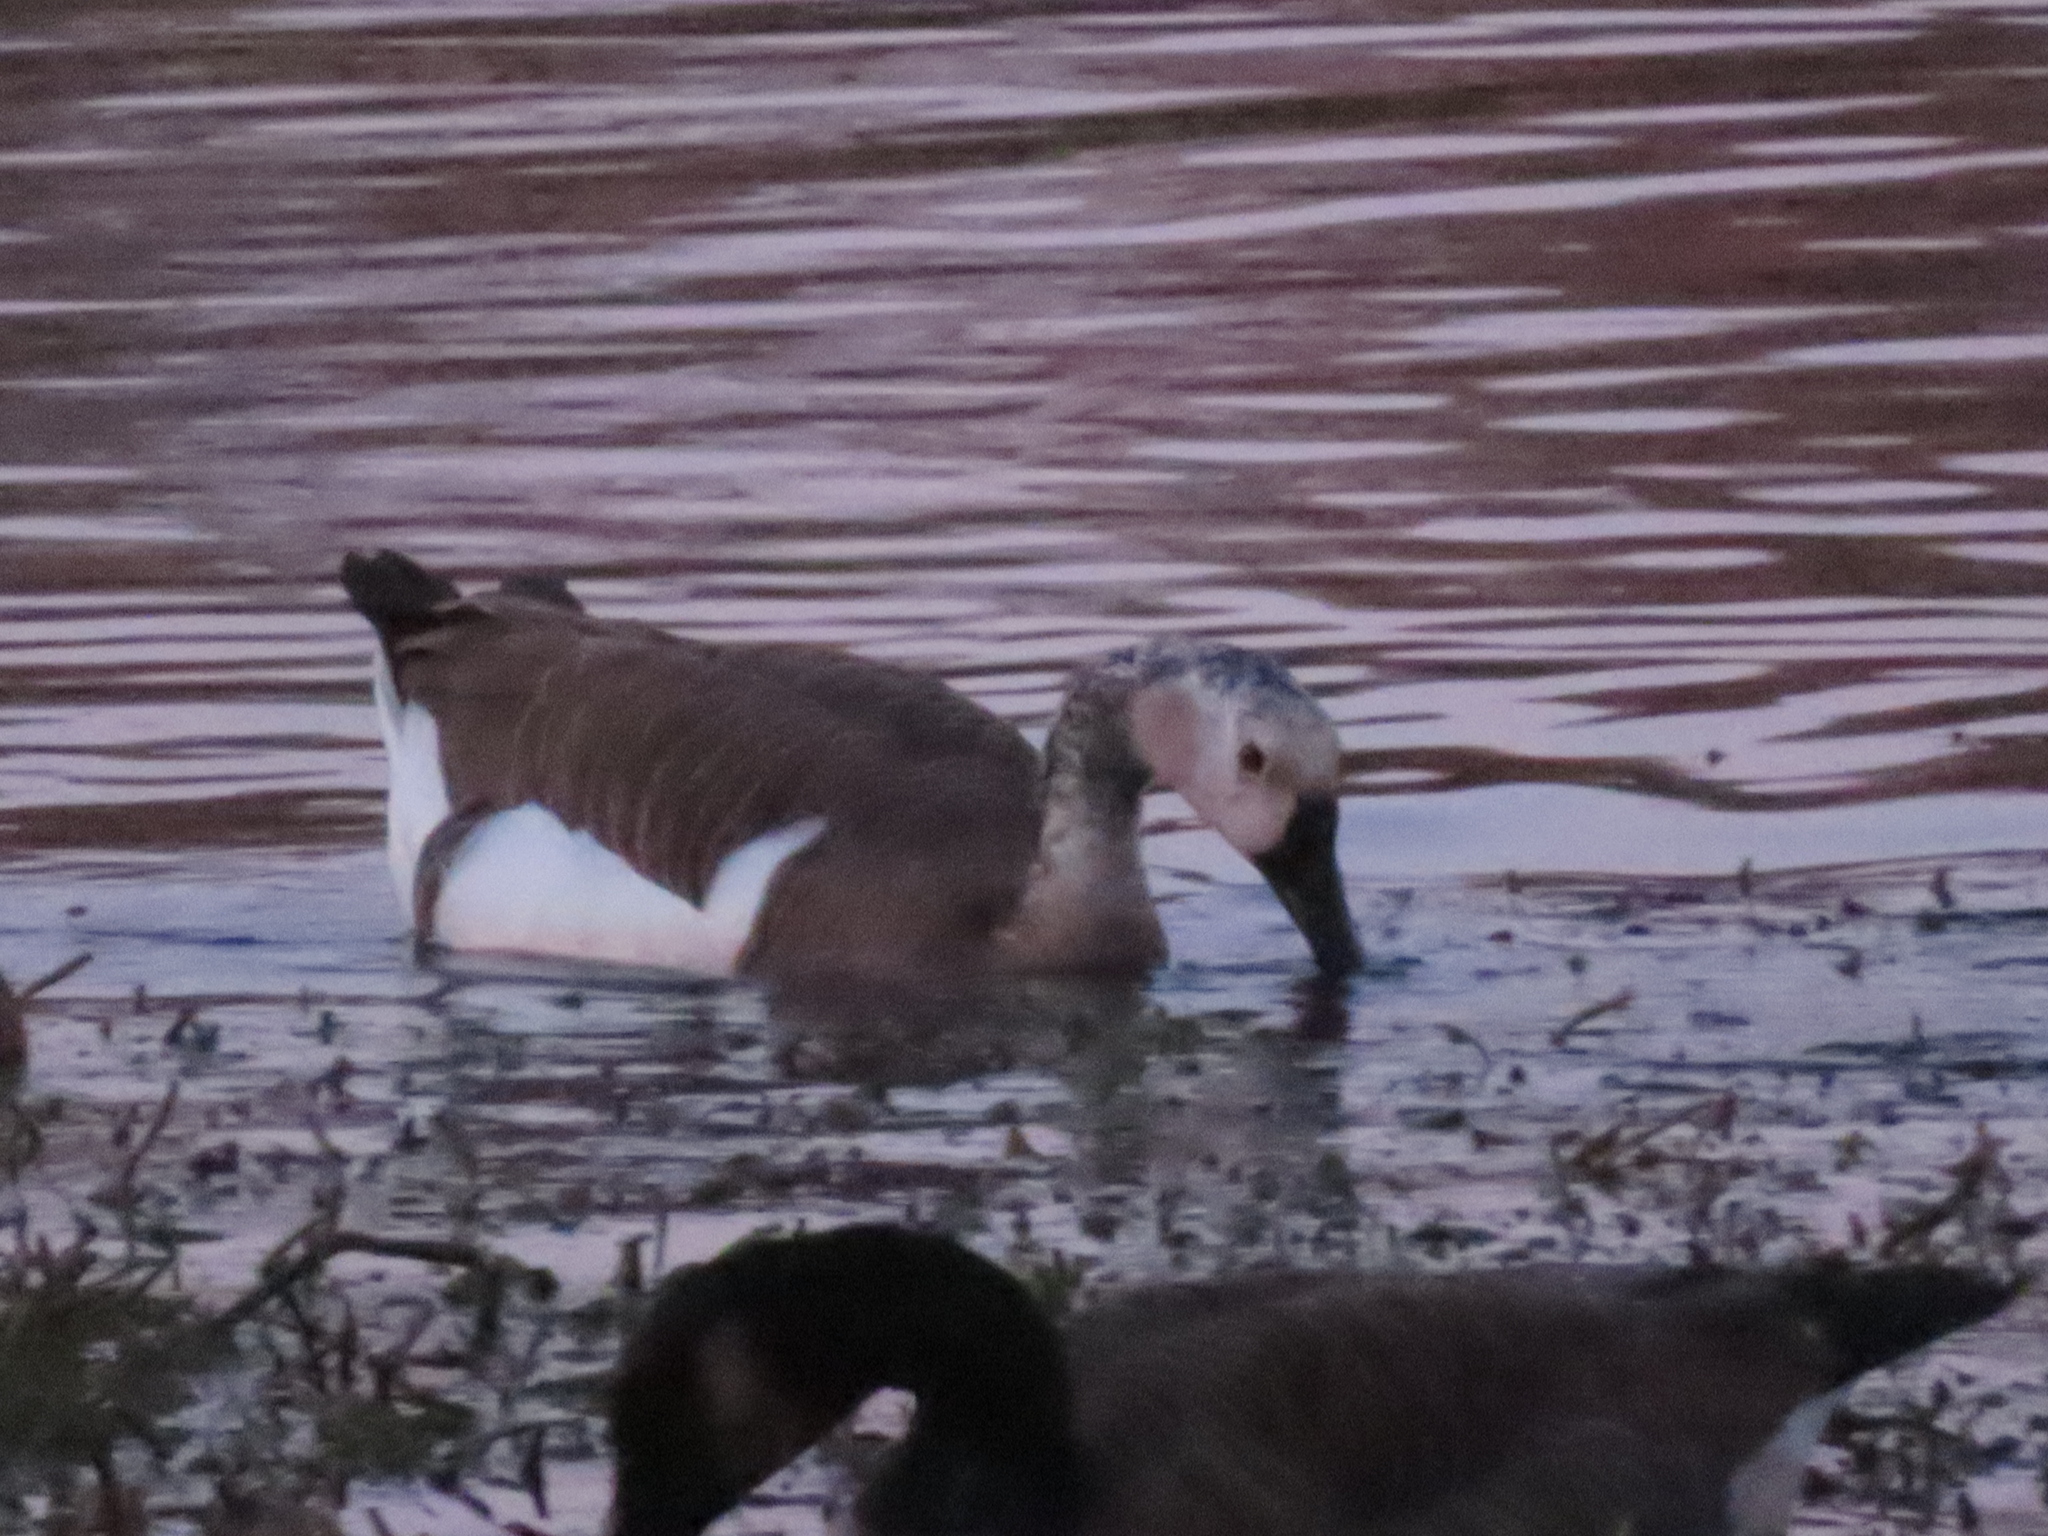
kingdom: Animalia
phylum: Chordata
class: Aves
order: Anseriformes
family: Anatidae
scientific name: Anatidae
